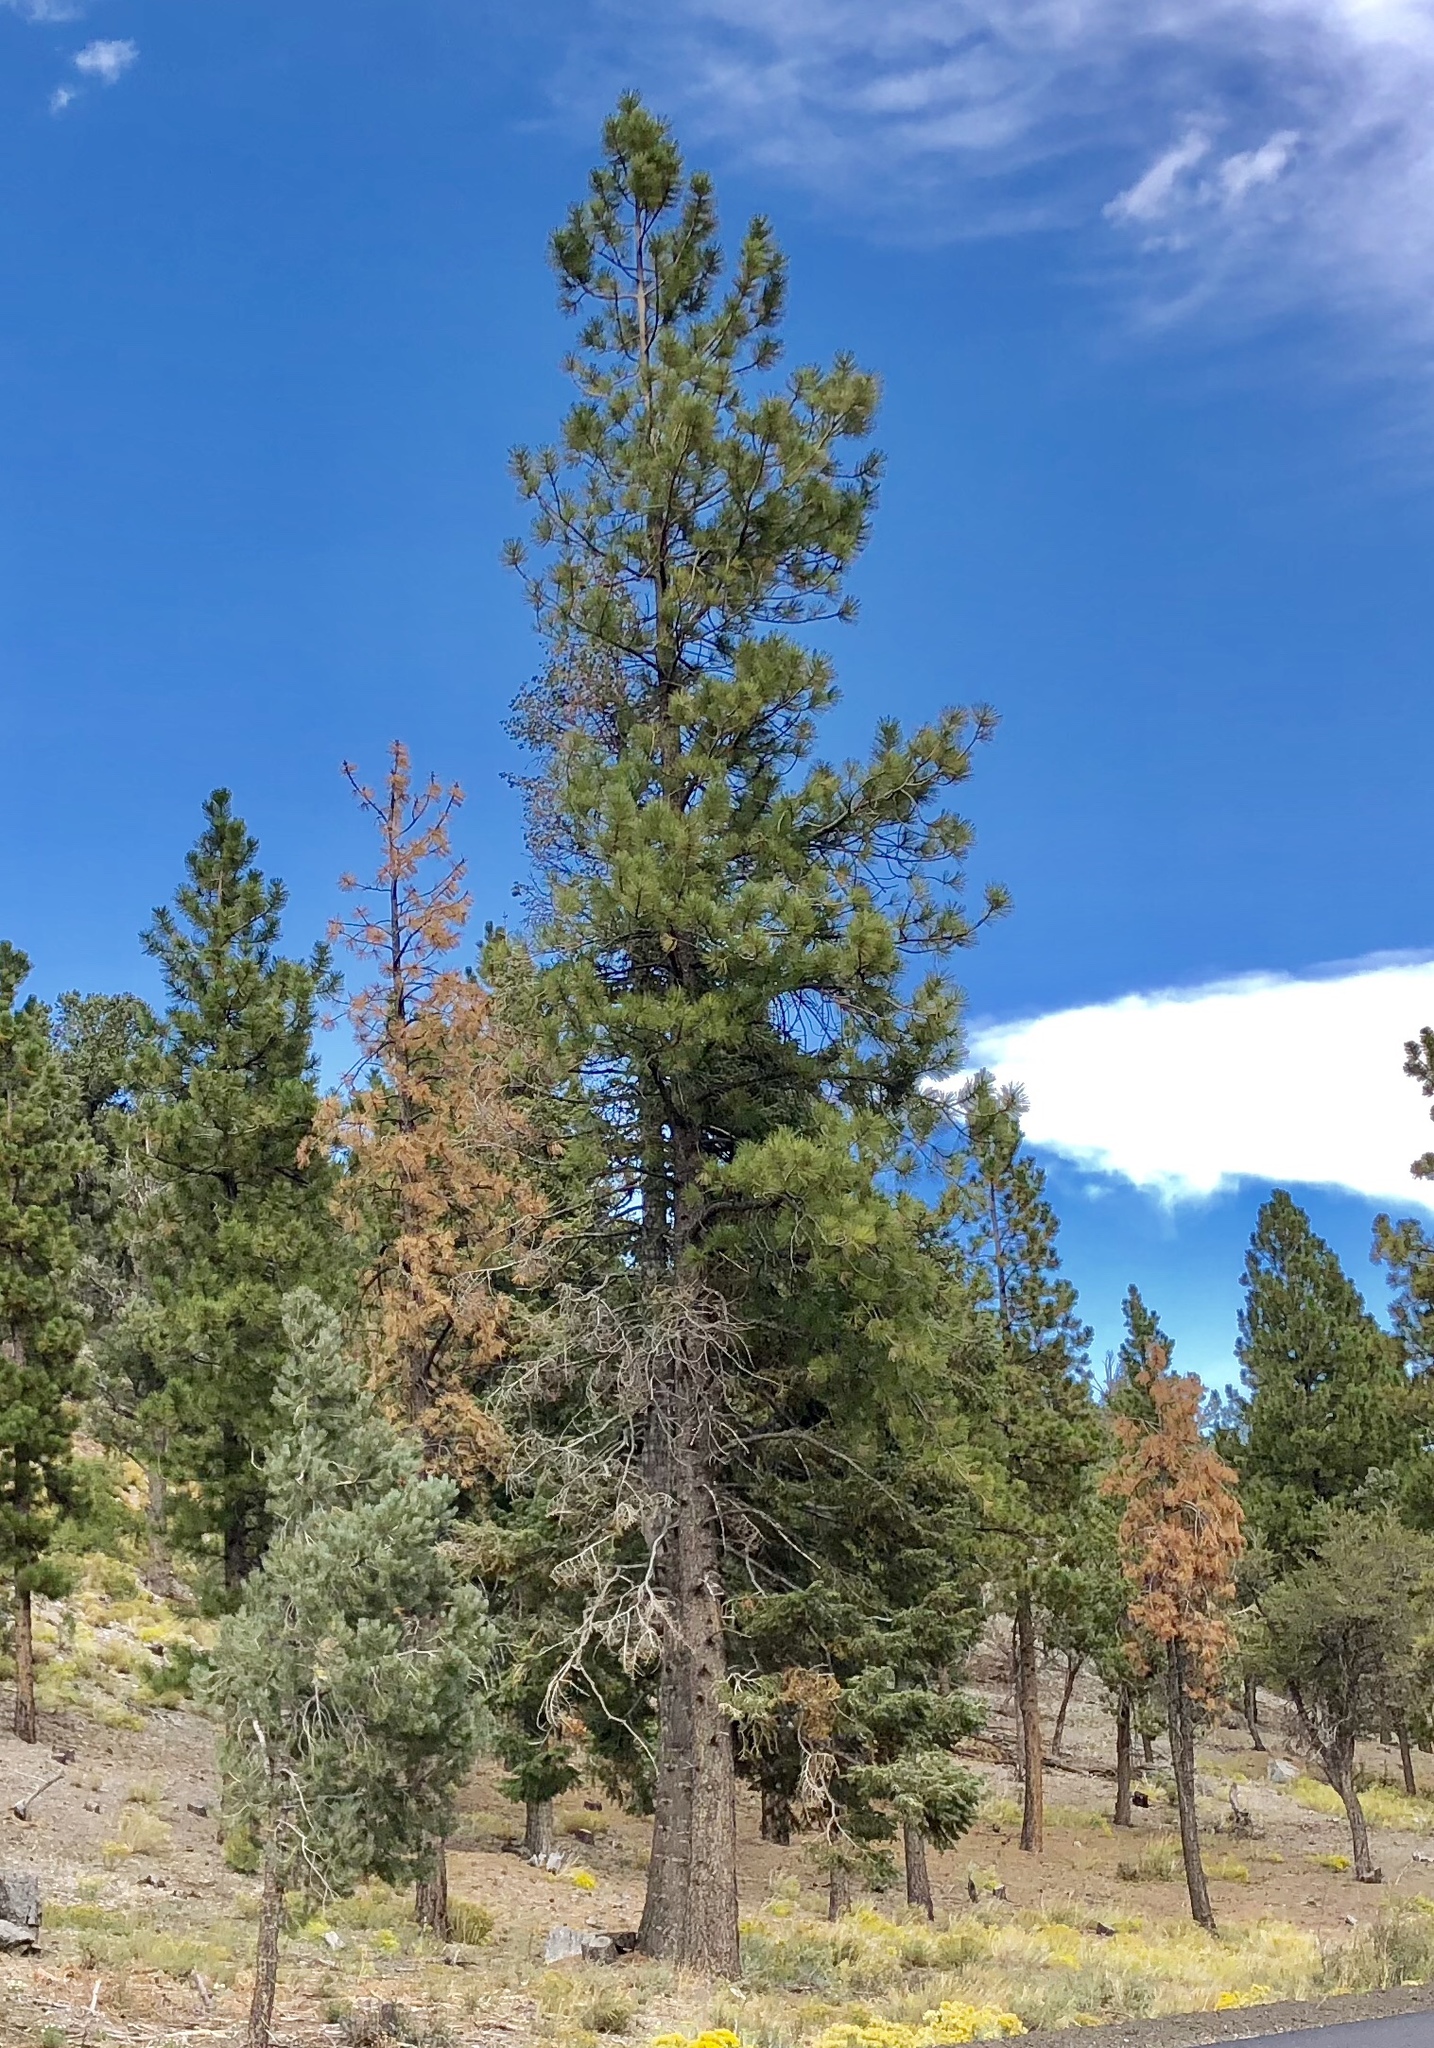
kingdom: Plantae
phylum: Tracheophyta
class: Pinopsida
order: Pinales
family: Pinaceae
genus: Pinus
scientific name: Pinus ponderosa
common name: Western yellow-pine
